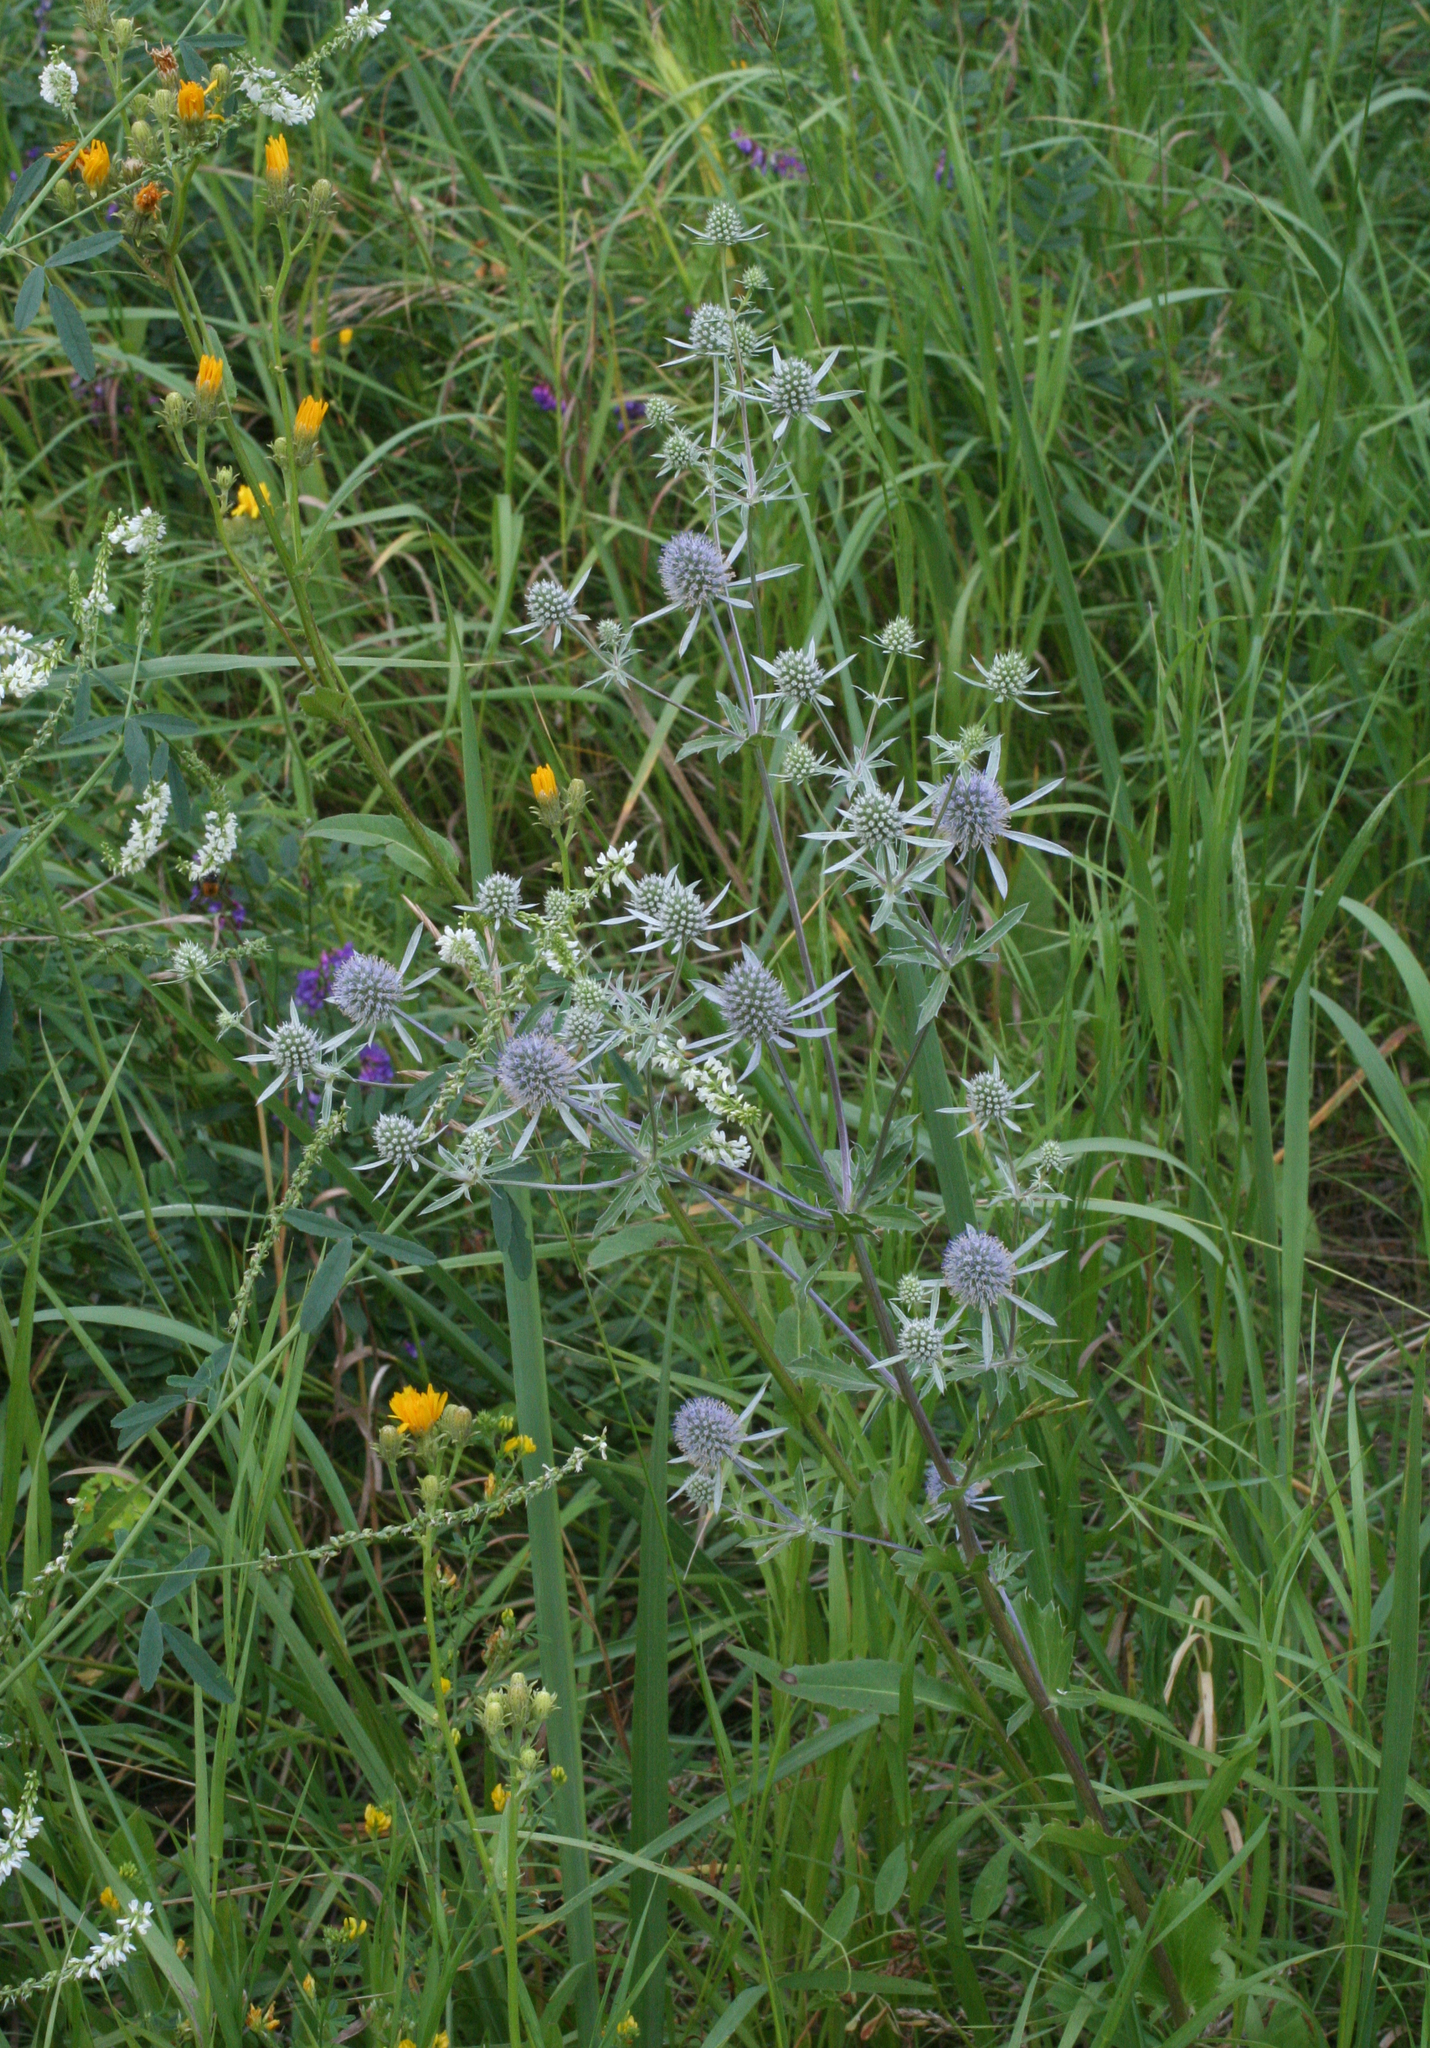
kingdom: Plantae
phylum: Tracheophyta
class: Magnoliopsida
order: Apiales
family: Apiaceae
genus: Eryngium
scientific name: Eryngium planum
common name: Blue eryngo
